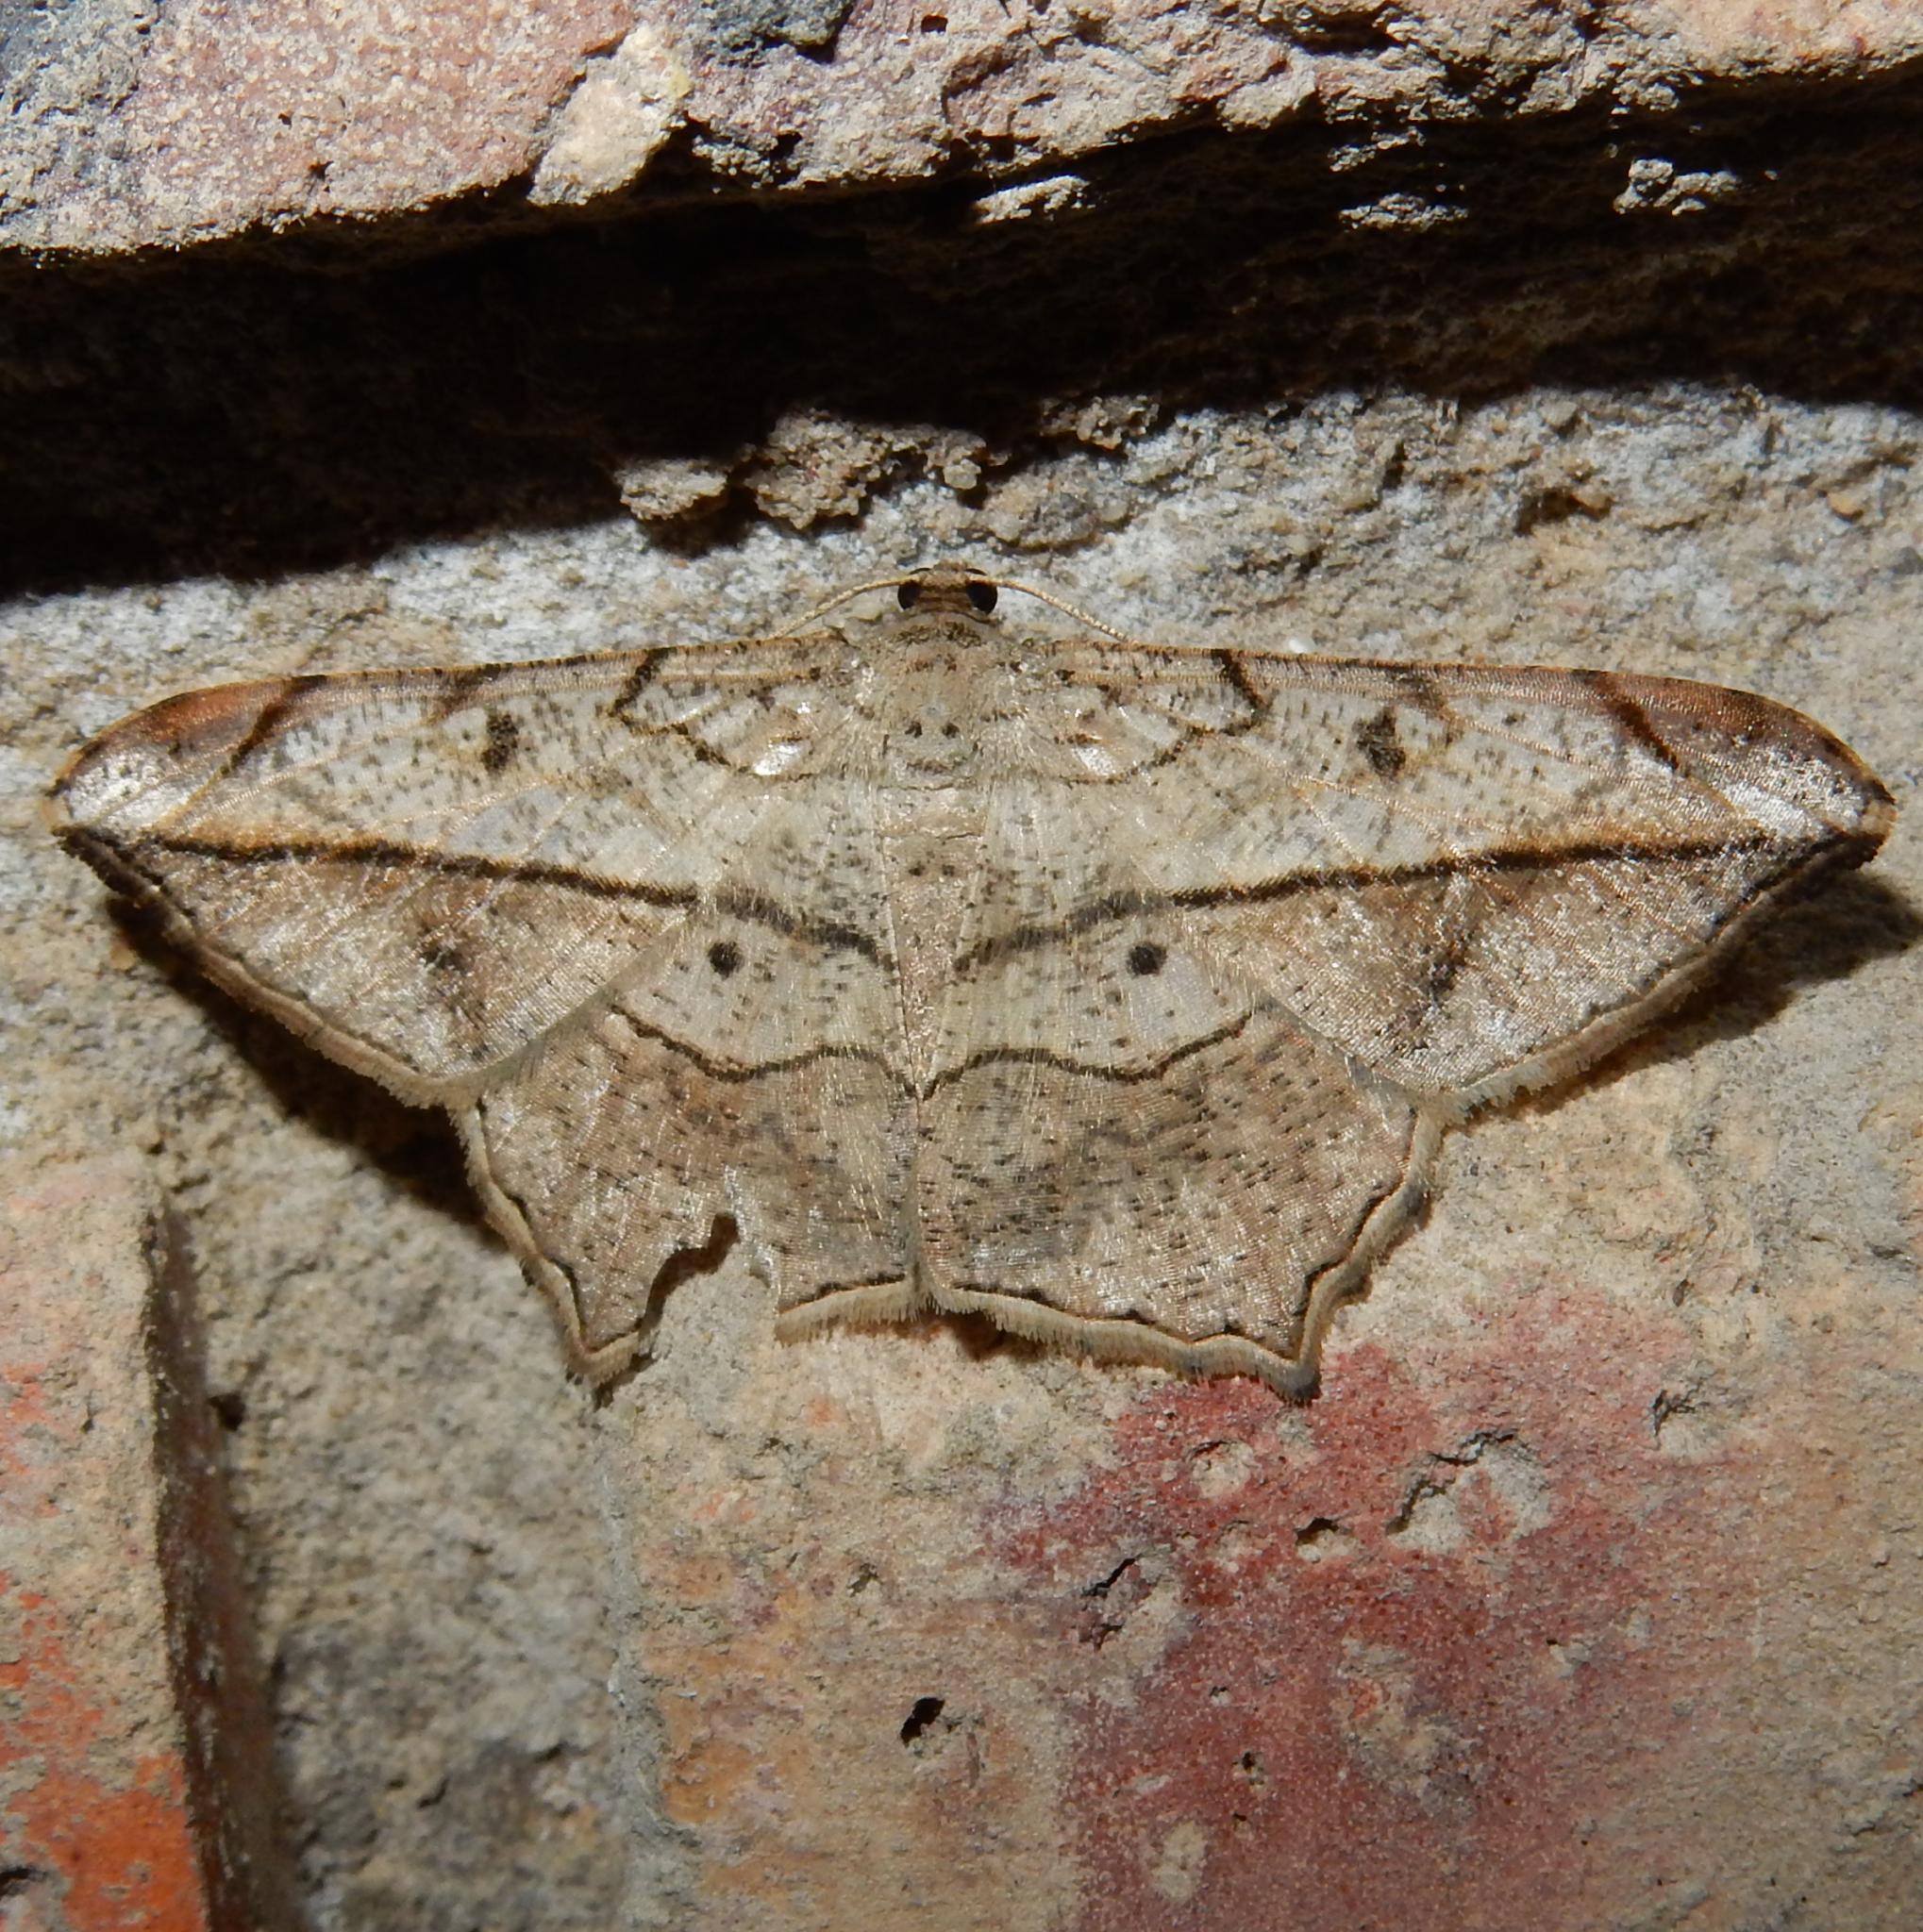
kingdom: Animalia
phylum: Arthropoda
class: Insecta
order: Lepidoptera
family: Geometridae
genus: Chiasmia
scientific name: Chiasmia simplicilinea
